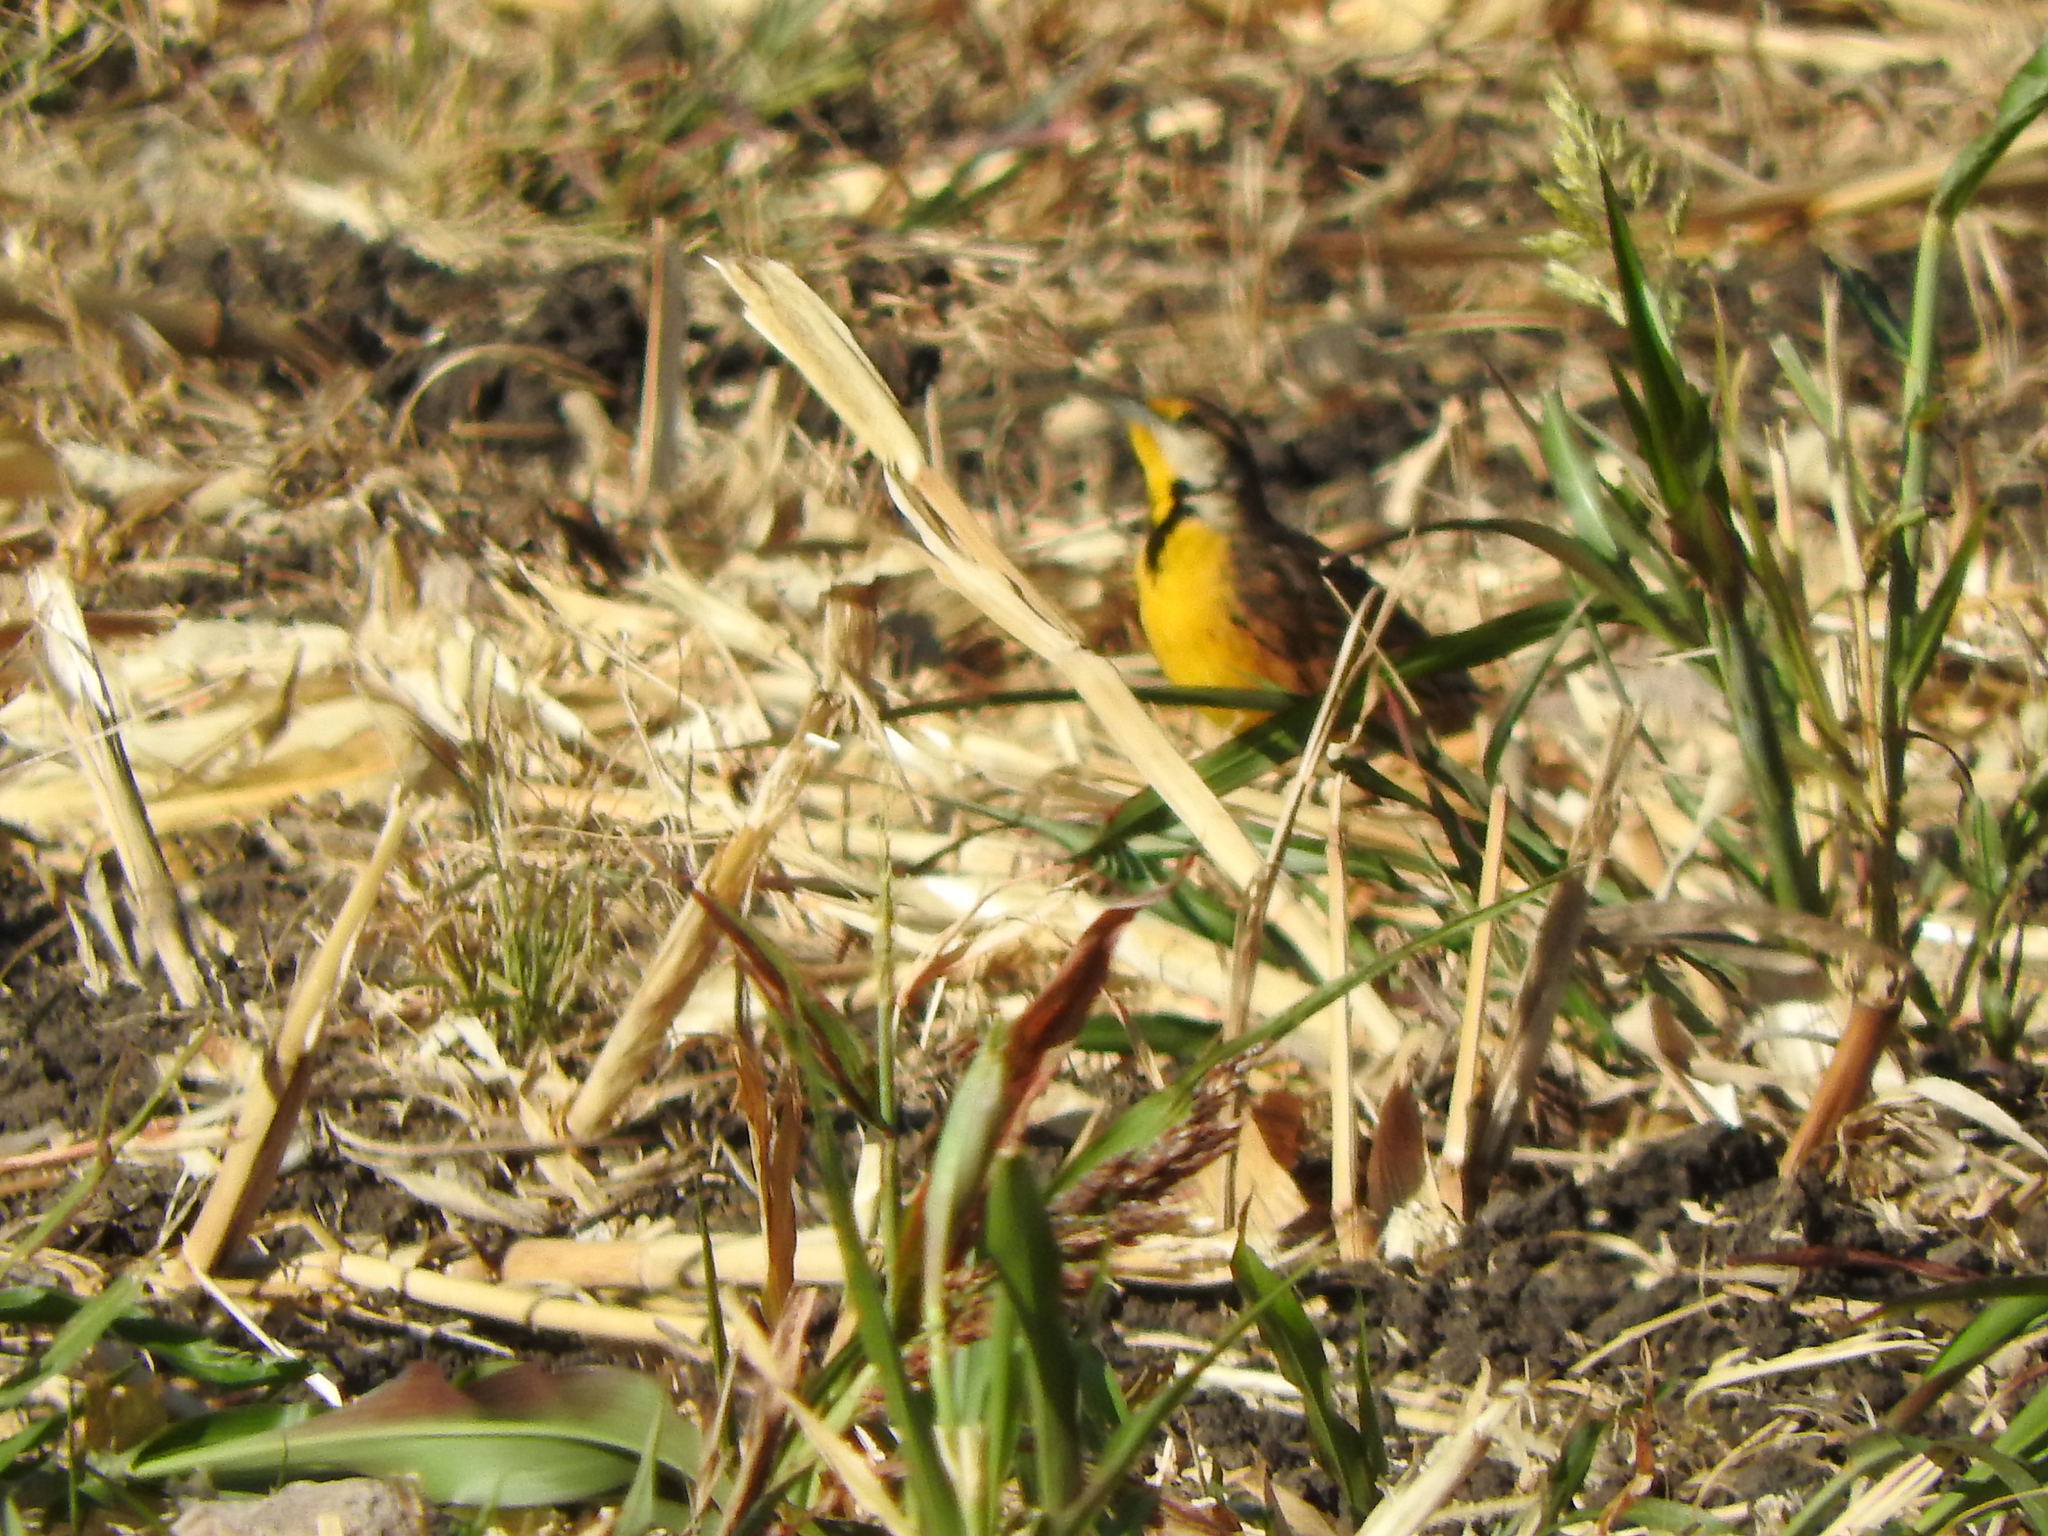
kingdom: Animalia
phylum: Chordata
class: Aves
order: Passeriformes
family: Icteridae
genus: Sturnella
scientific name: Sturnella lilianae
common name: Lilian's meadowlark
